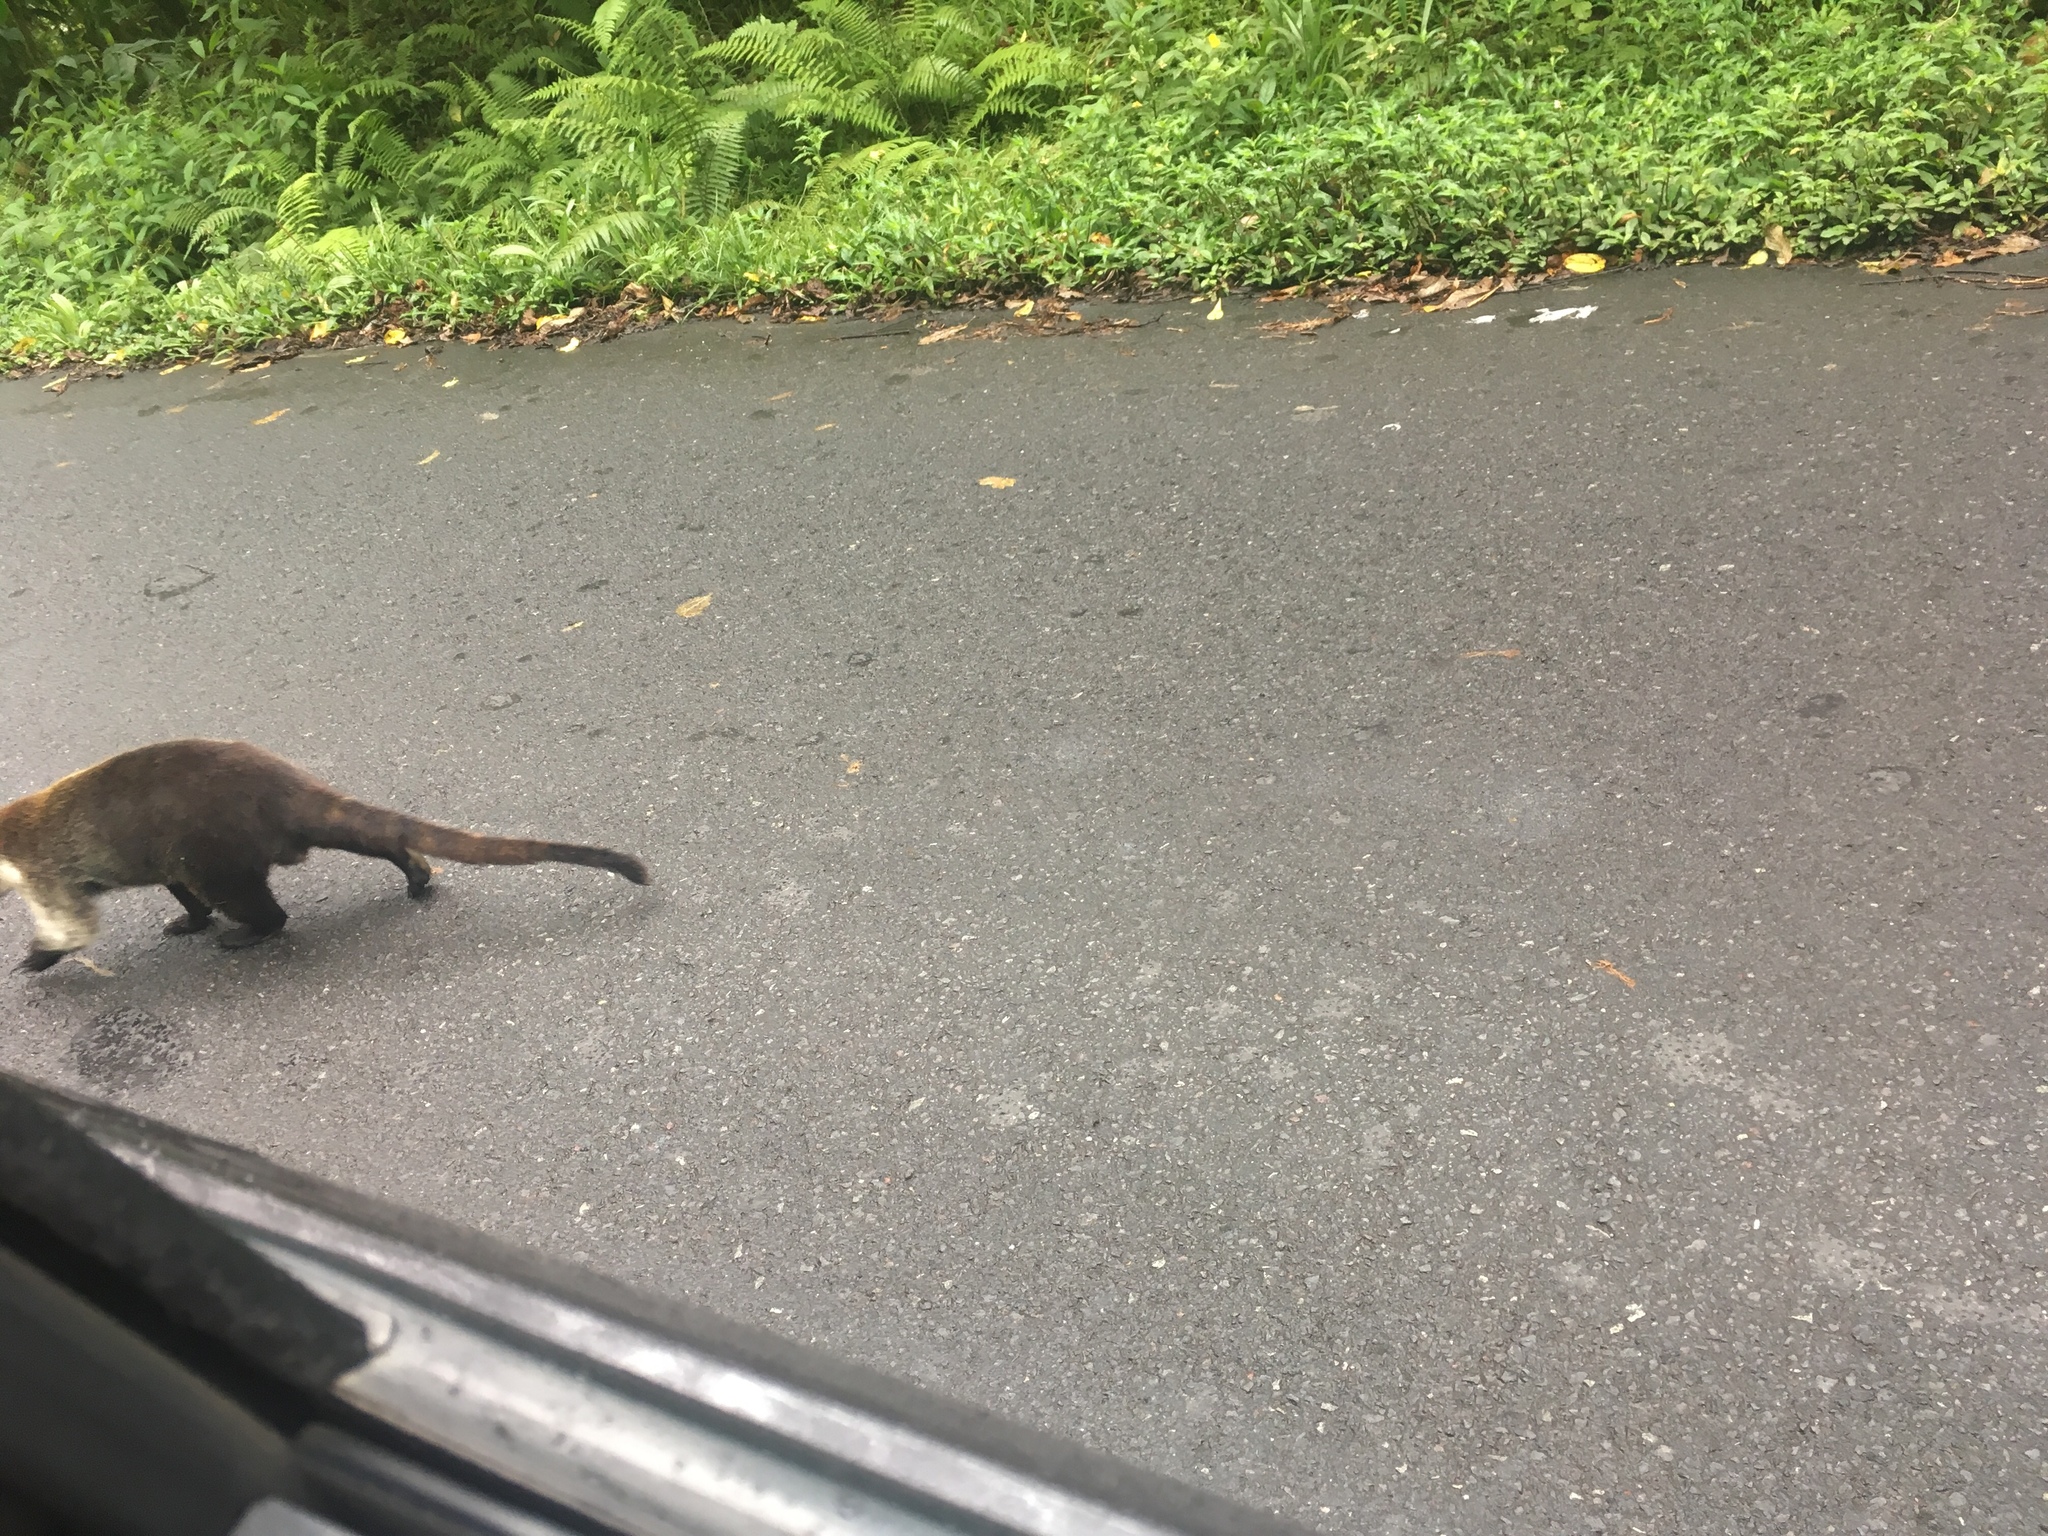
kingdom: Animalia
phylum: Chordata
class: Mammalia
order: Carnivora
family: Procyonidae
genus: Nasua
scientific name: Nasua narica
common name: White-nosed coati
